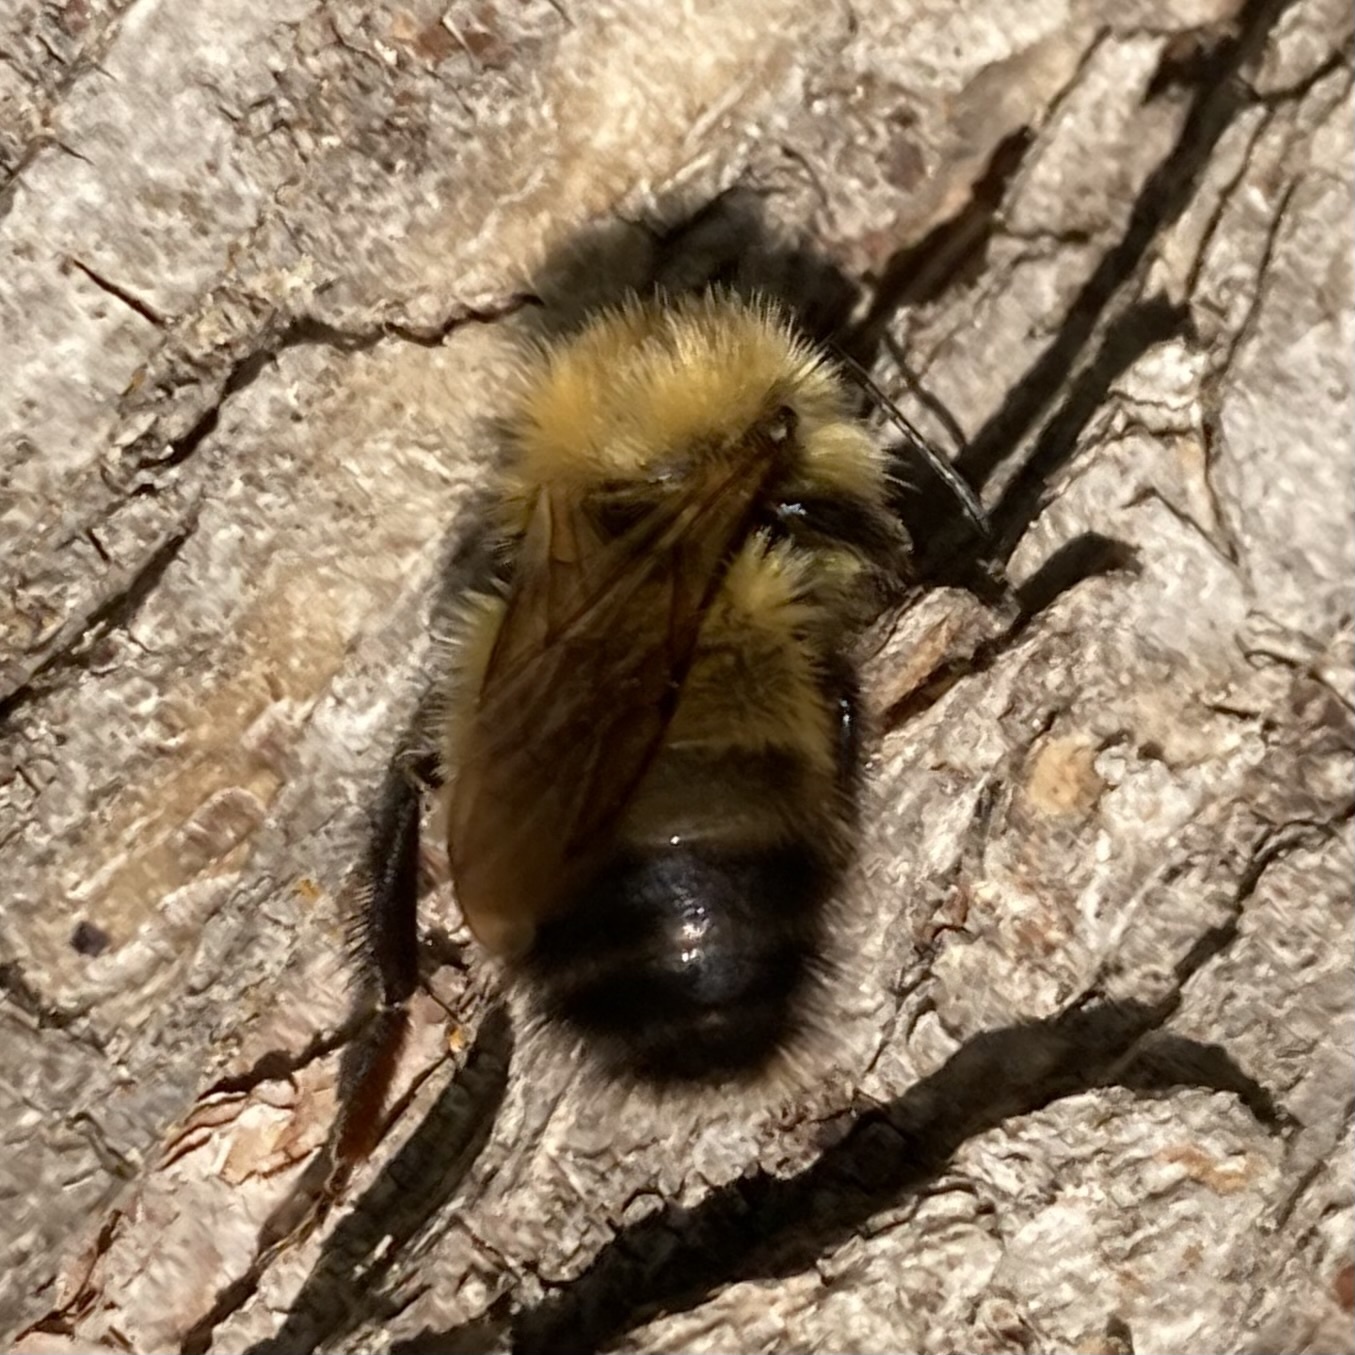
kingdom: Animalia
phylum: Arthropoda
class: Insecta
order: Hymenoptera
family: Apidae
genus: Bombus
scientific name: Bombus perplexus
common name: Confusing bumble bee
